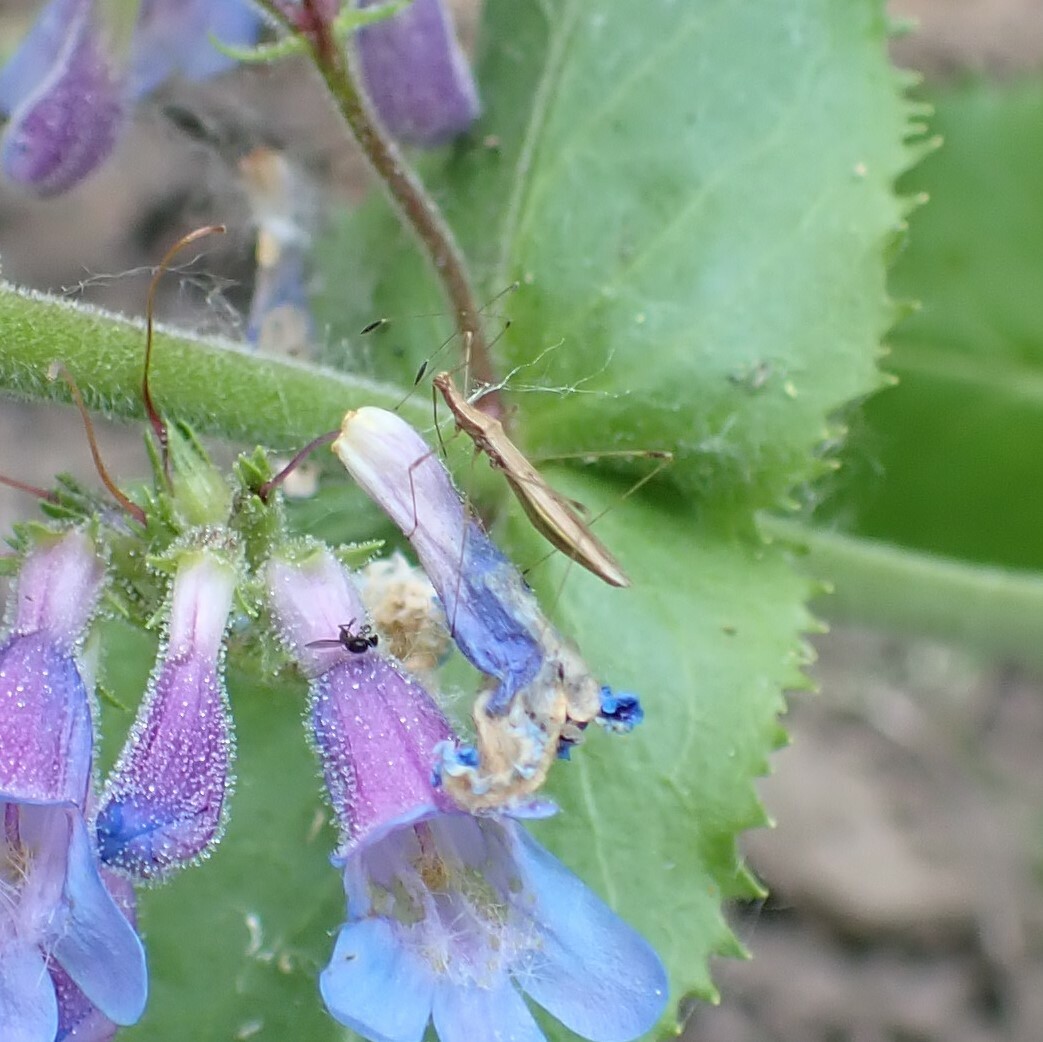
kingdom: Animalia
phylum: Arthropoda
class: Insecta
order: Hemiptera
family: Berytidae
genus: Neoneides
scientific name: Neoneides muticus
